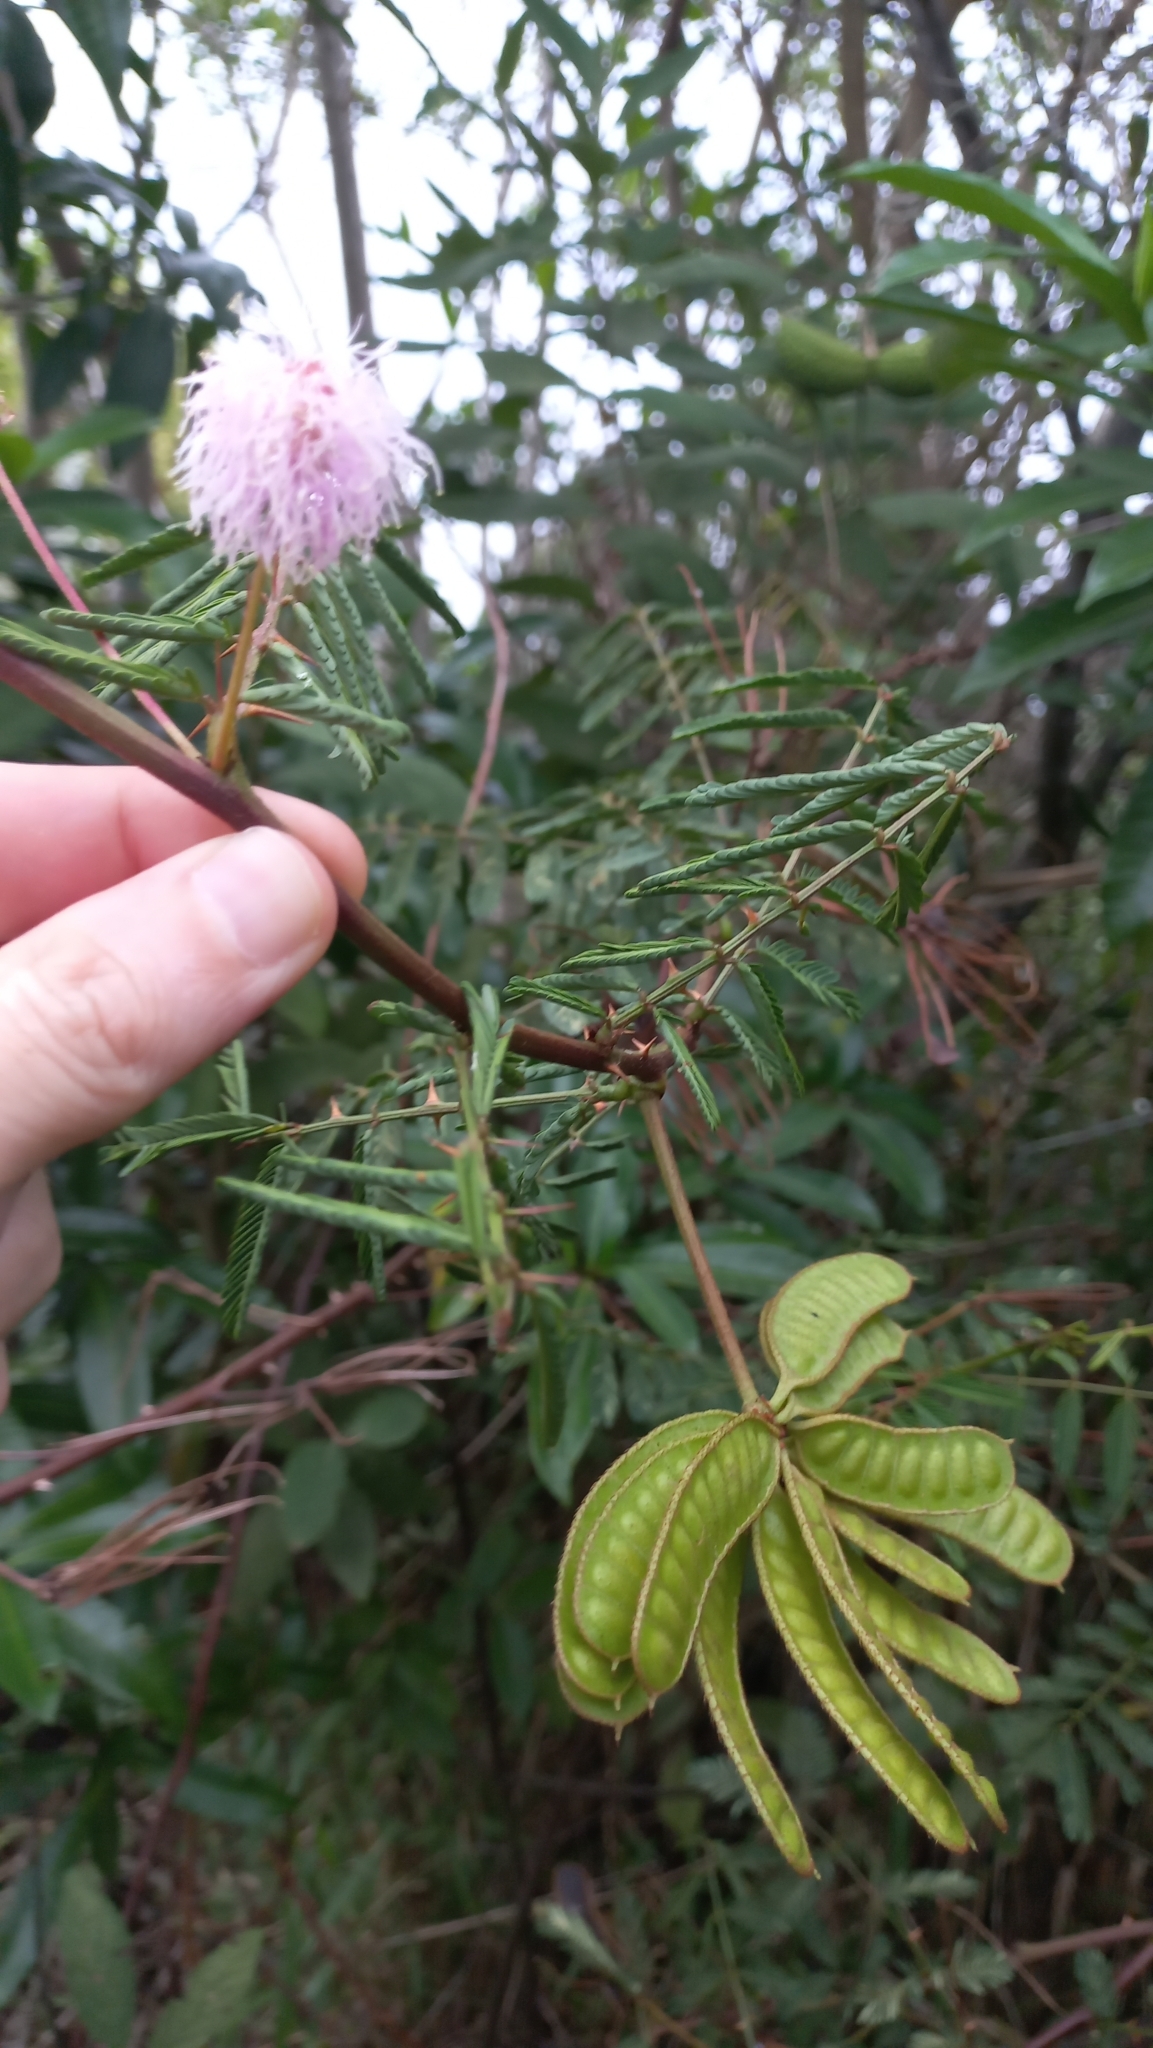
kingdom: Plantae
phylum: Tracheophyta
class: Magnoliopsida
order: Fabales
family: Fabaceae
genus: Mimosa
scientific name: Mimosa pigra
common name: Black mimosa
